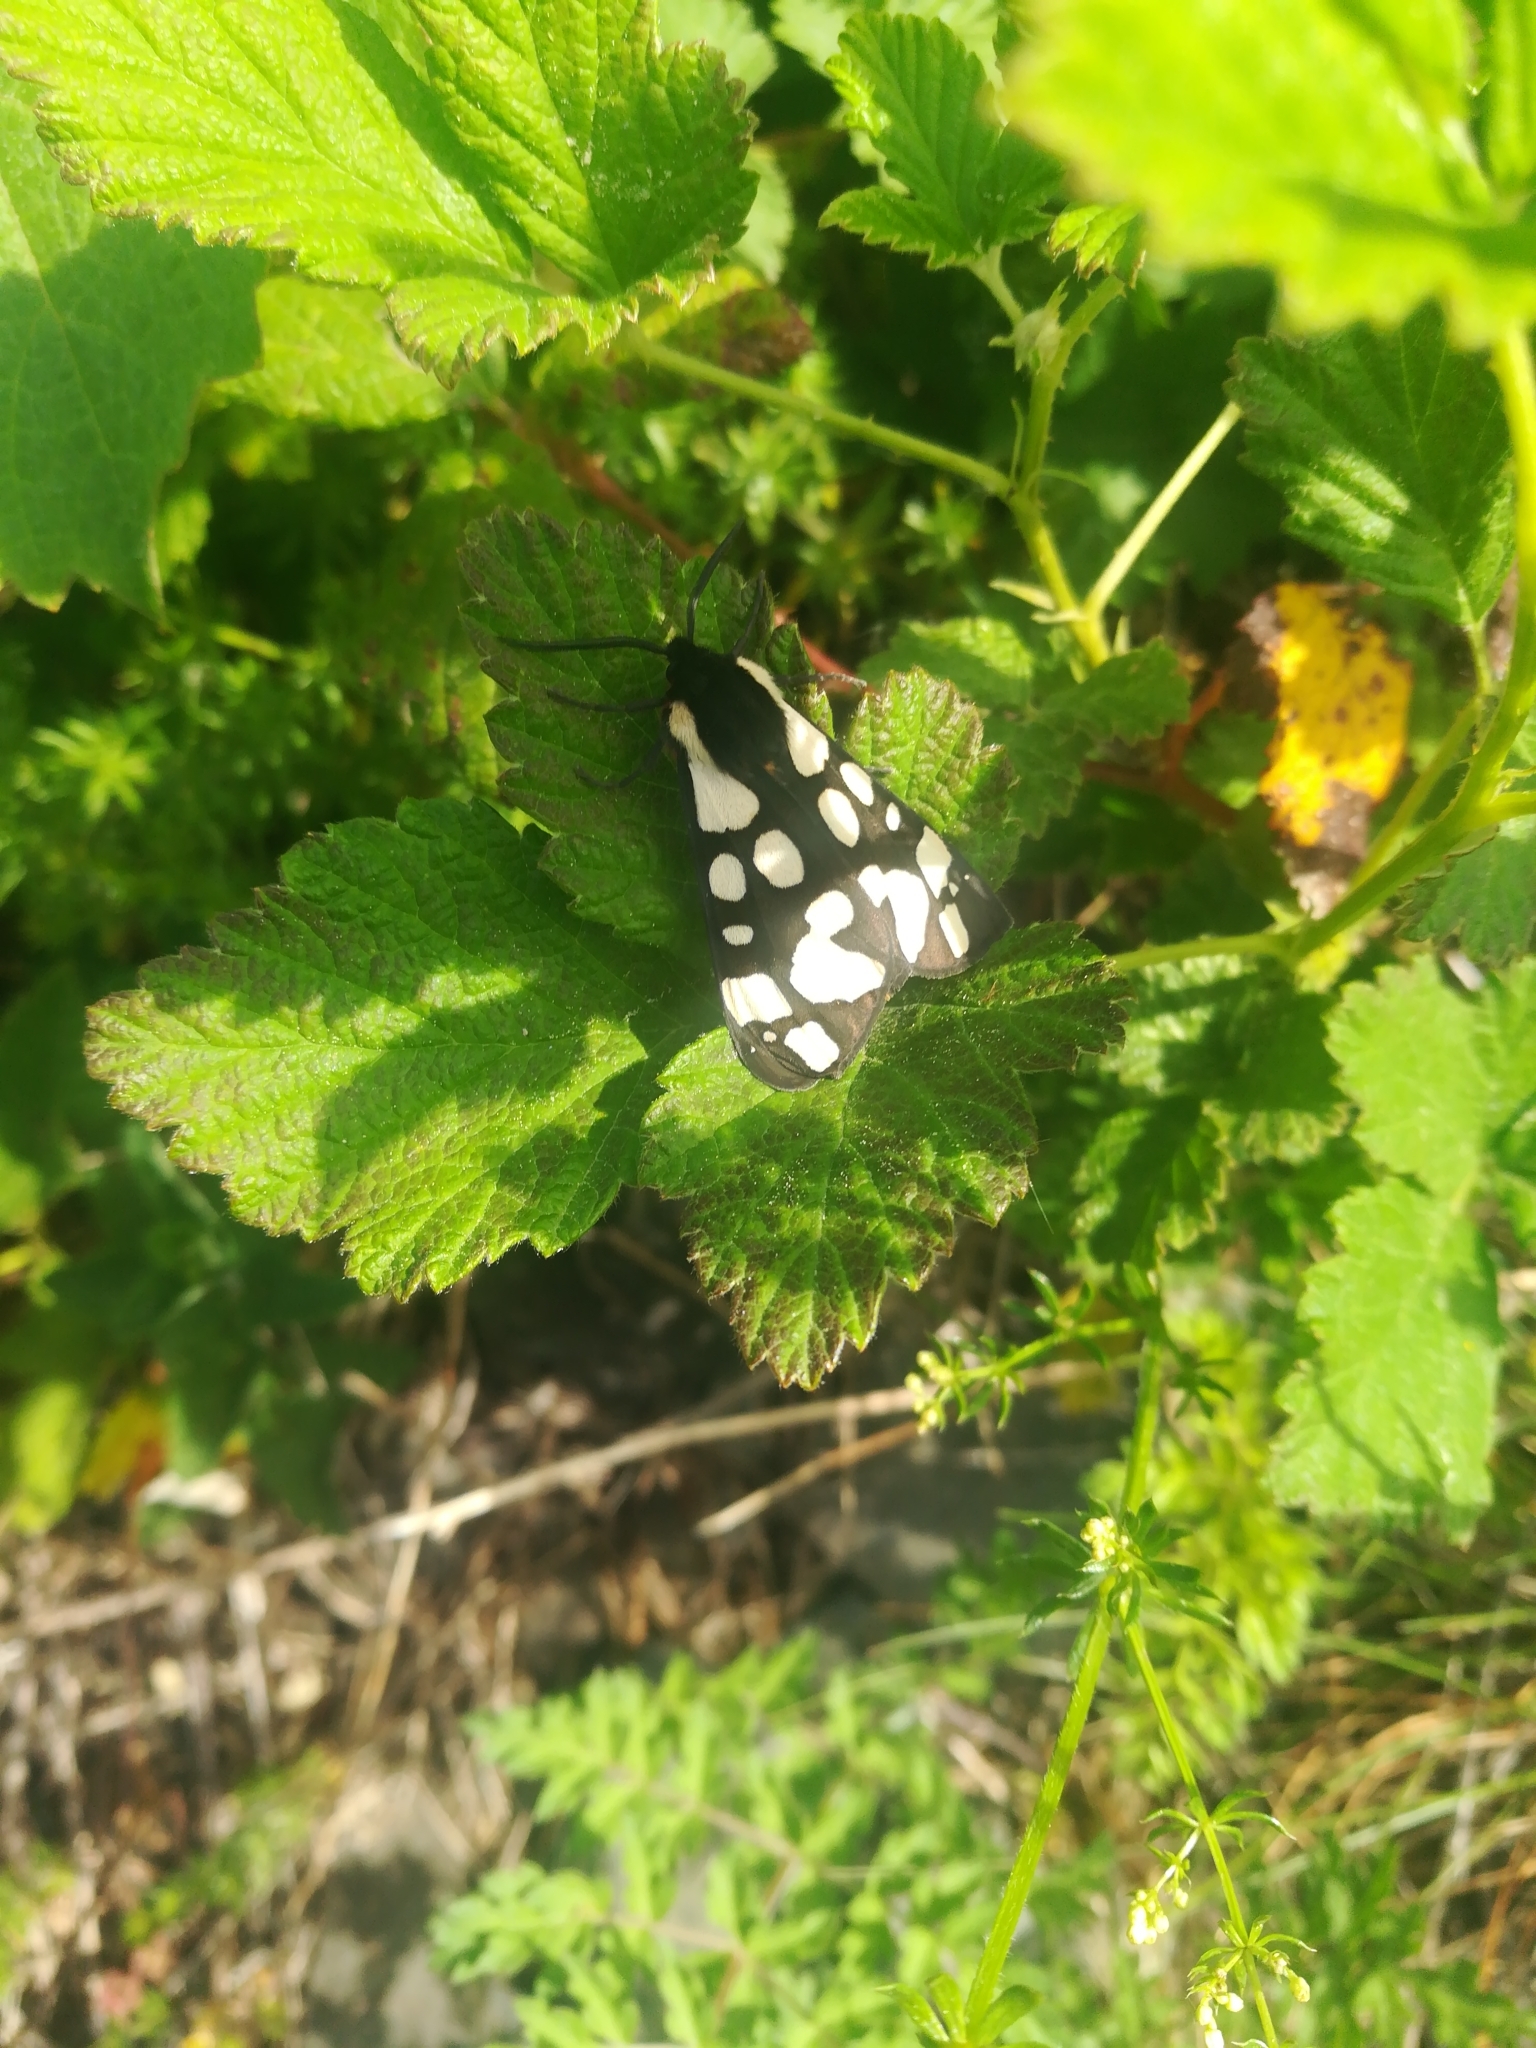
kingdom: Animalia
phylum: Arthropoda
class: Insecta
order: Lepidoptera
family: Erebidae
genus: Epicallia
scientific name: Epicallia villica
